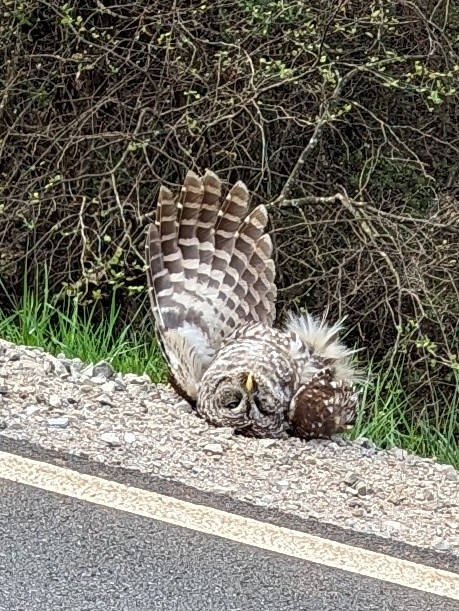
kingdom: Animalia
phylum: Chordata
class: Aves
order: Strigiformes
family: Strigidae
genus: Strix
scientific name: Strix varia
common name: Barred owl
